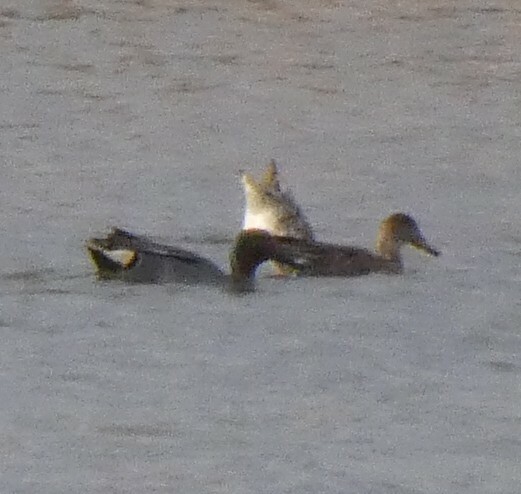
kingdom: Animalia
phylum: Chordata
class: Aves
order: Anseriformes
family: Anatidae
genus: Anas
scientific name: Anas crecca
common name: Eurasian teal
